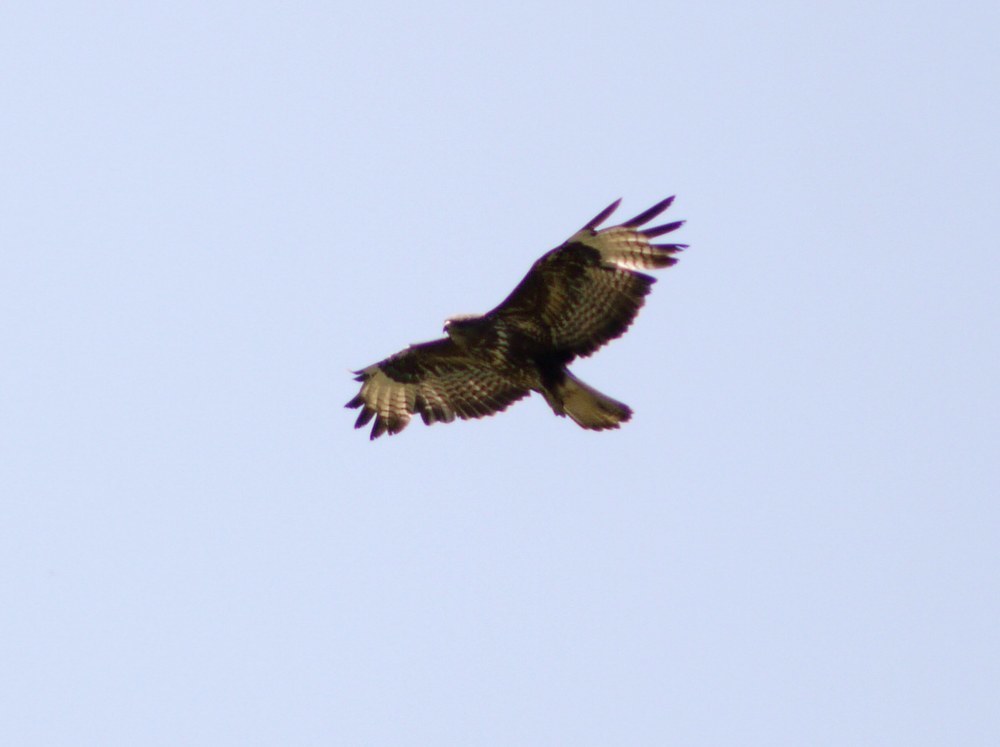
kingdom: Animalia
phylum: Chordata
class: Aves
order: Accipitriformes
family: Accipitridae
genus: Buteo
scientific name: Buteo buteo
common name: Common buzzard
